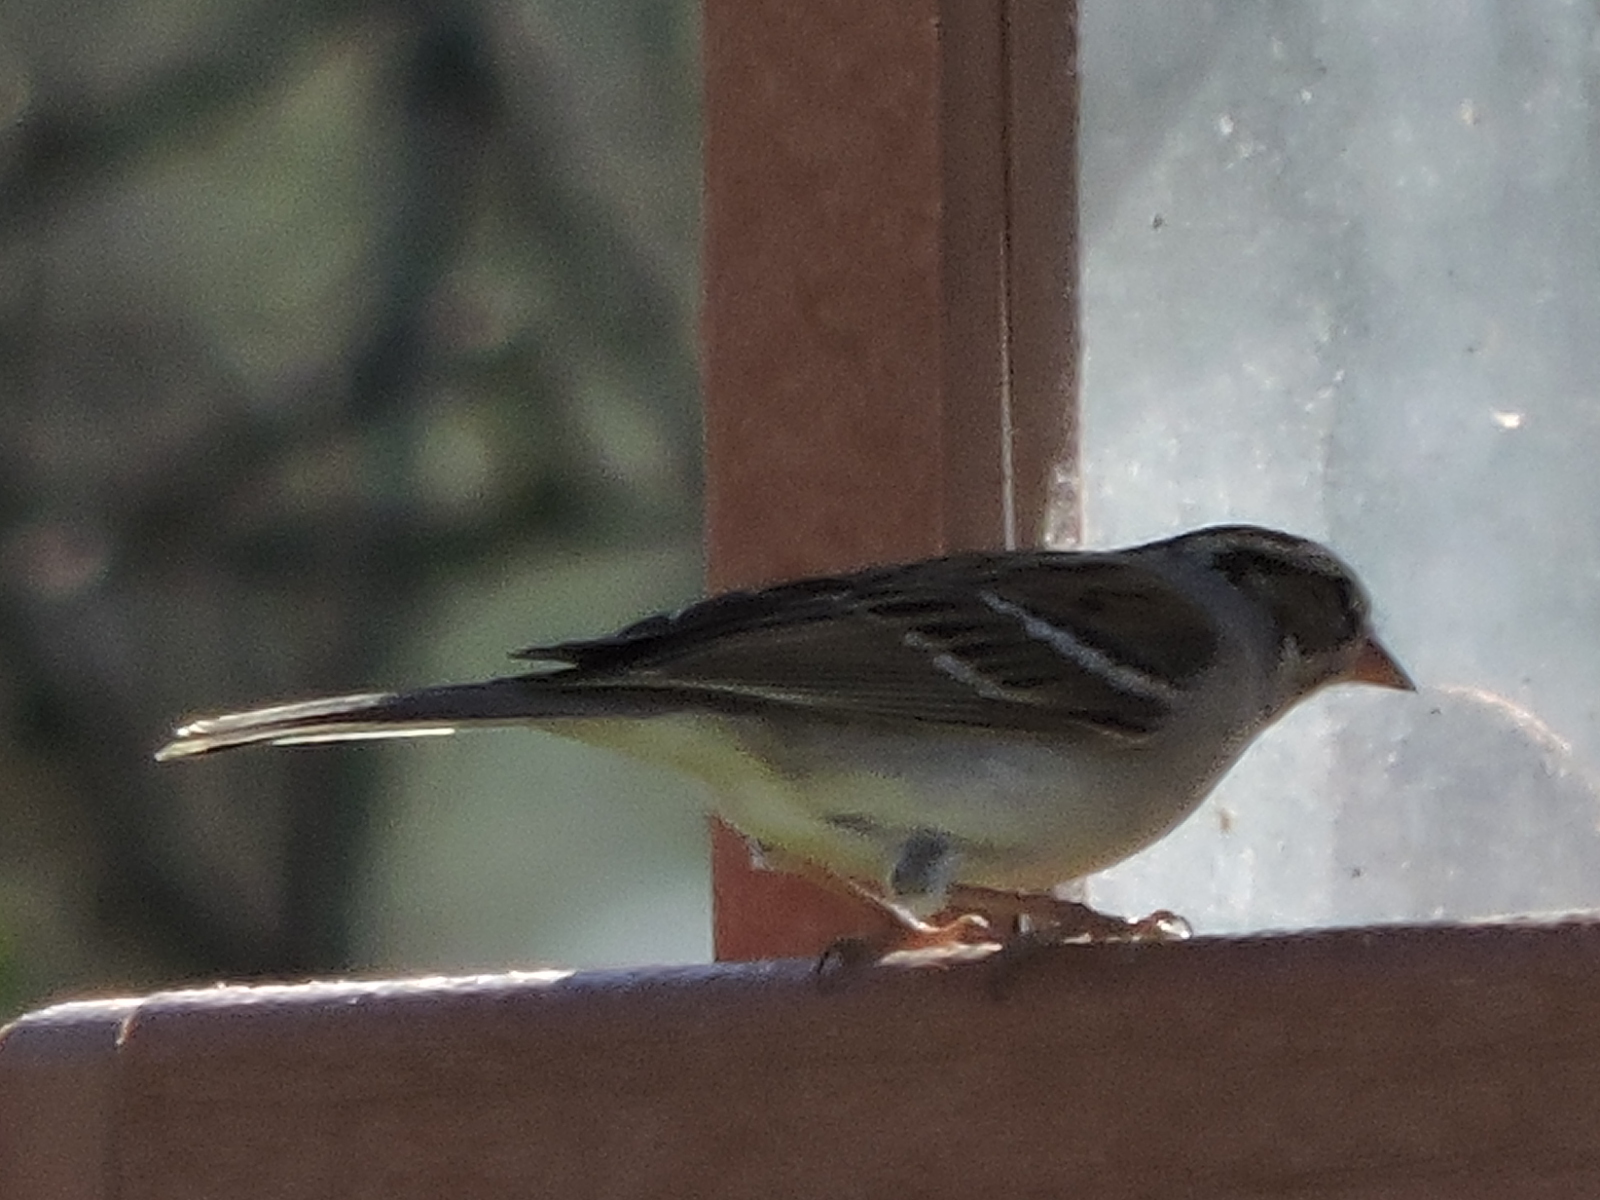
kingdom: Animalia
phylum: Chordata
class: Aves
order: Passeriformes
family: Passerellidae
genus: Spizella
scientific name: Spizella passerina
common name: Chipping sparrow
